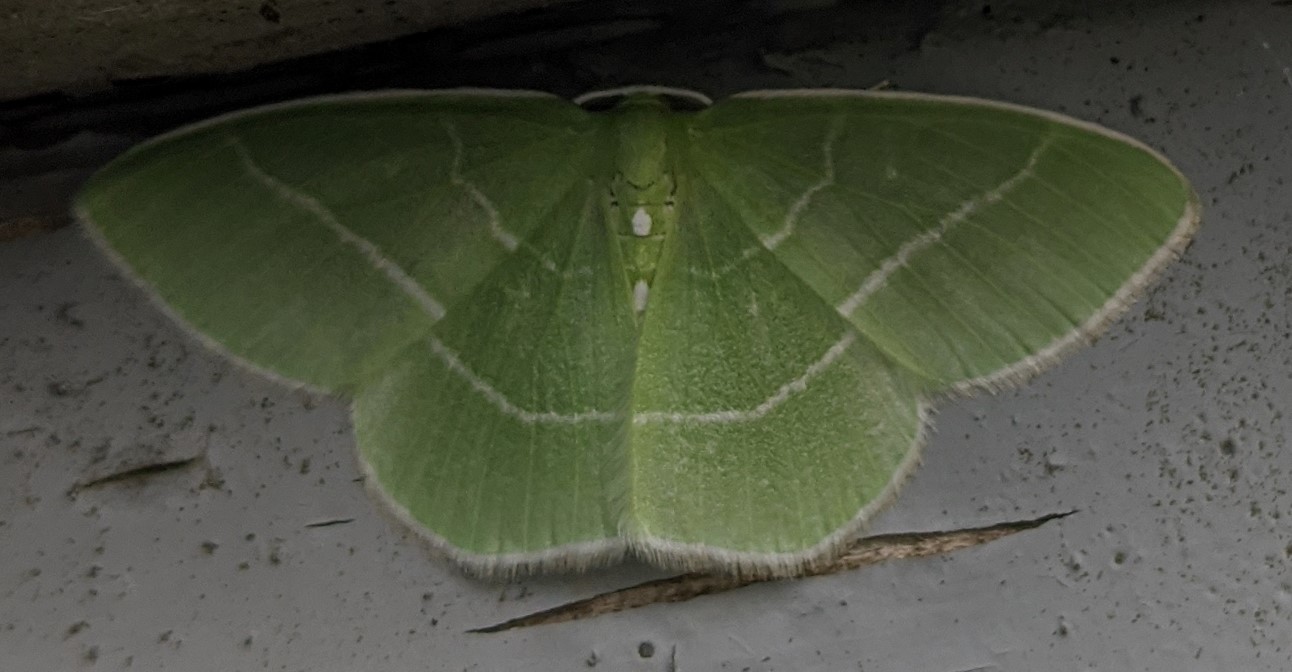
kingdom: Animalia
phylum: Arthropoda
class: Insecta
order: Lepidoptera
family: Geometridae
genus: Nemoria
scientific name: Nemoria mimosaria
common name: White-fringed emerald
